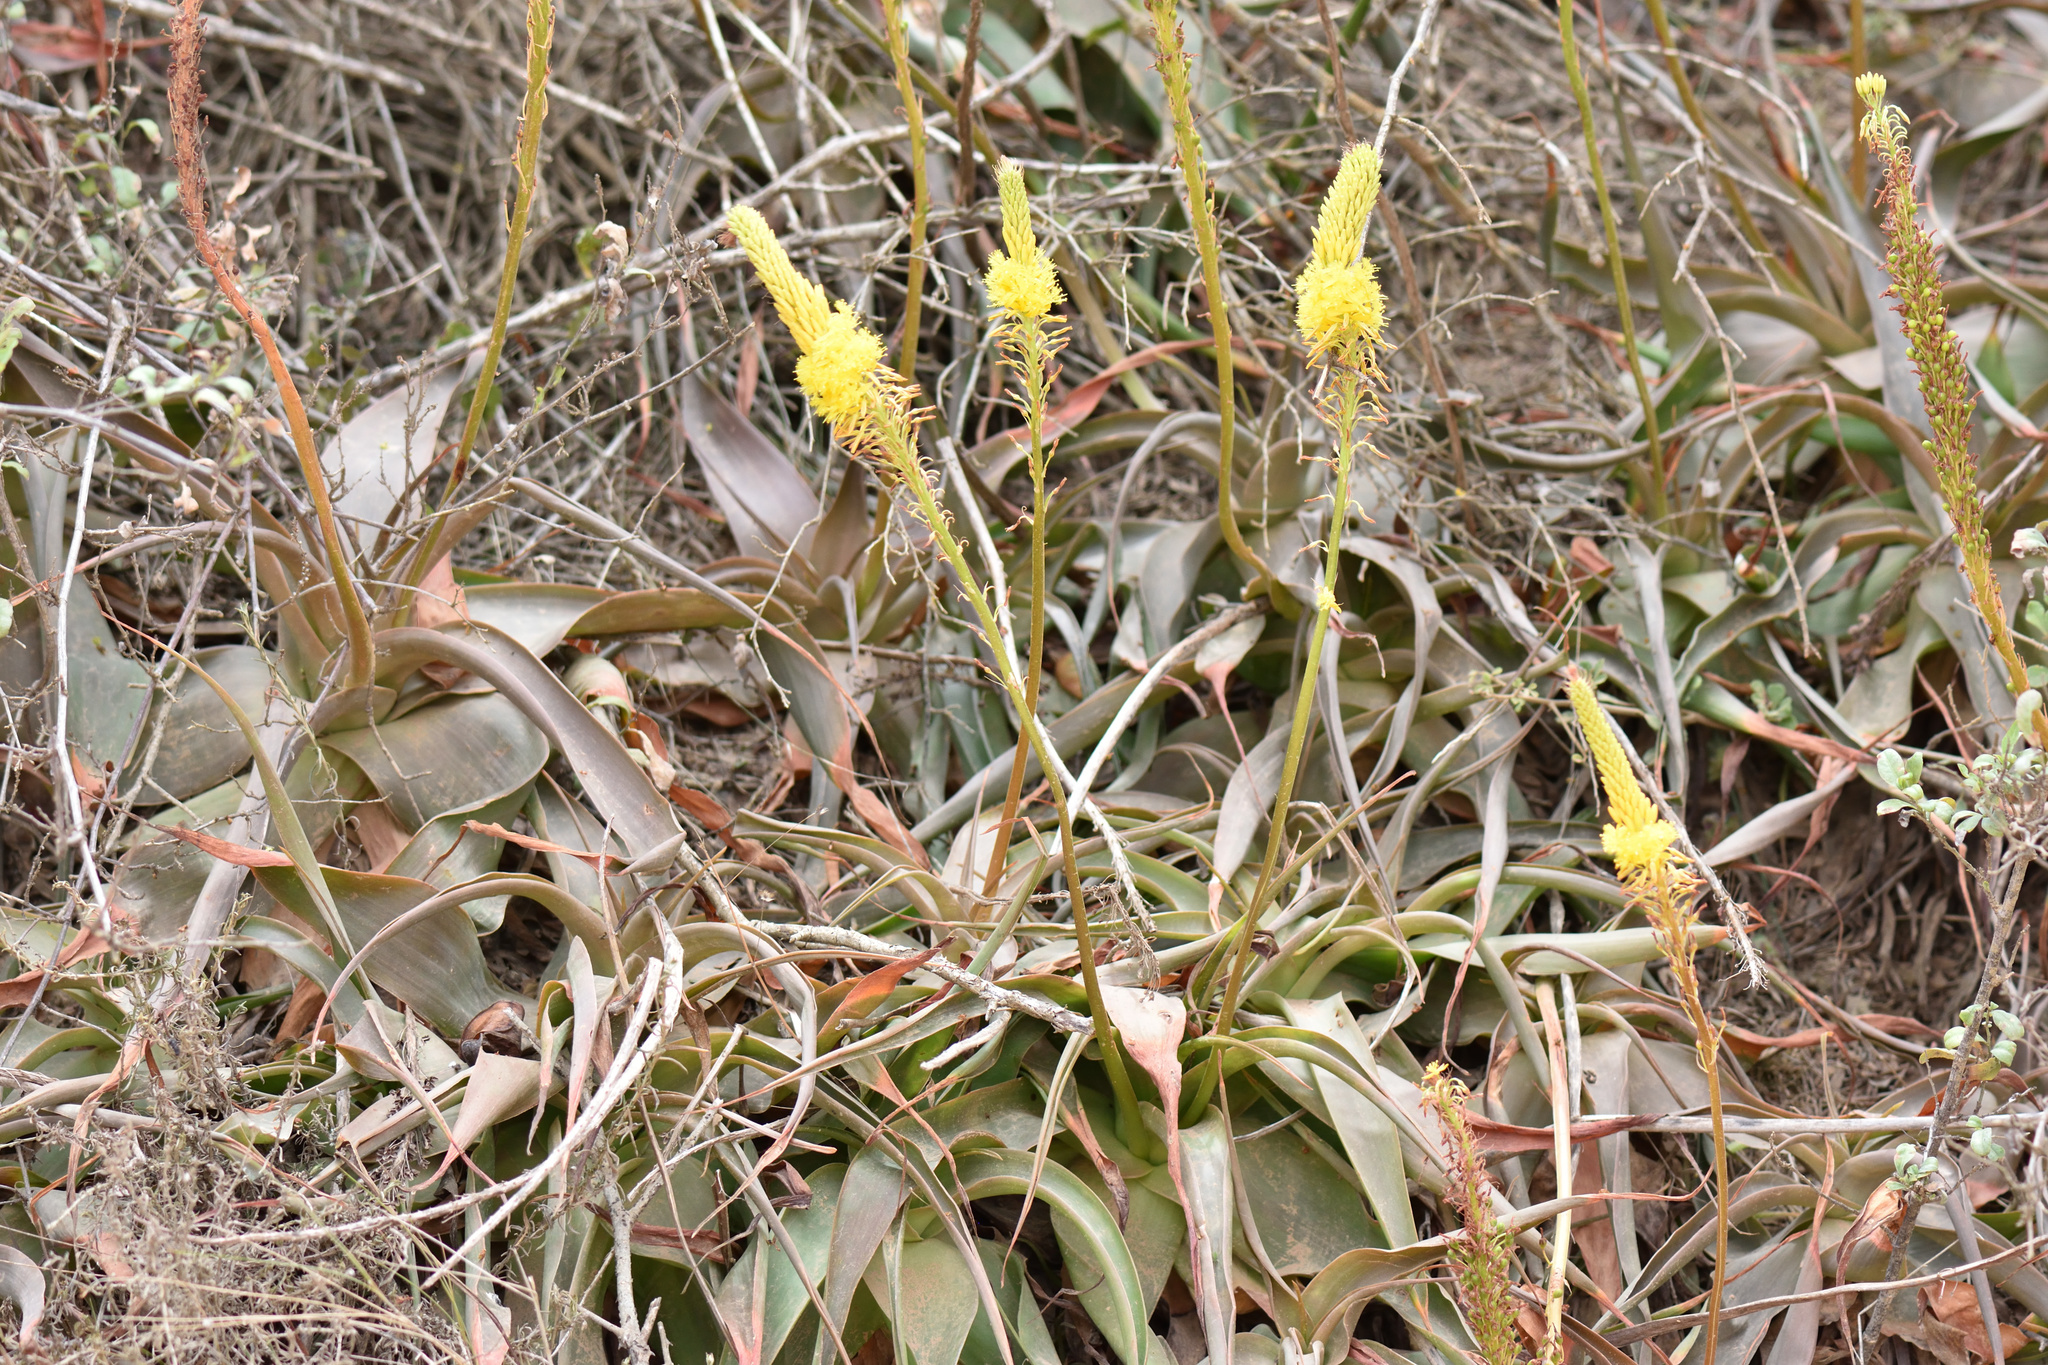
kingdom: Plantae
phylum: Tracheophyta
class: Liliopsida
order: Asparagales
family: Asphodelaceae
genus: Bulbine
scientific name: Bulbine latifolia
